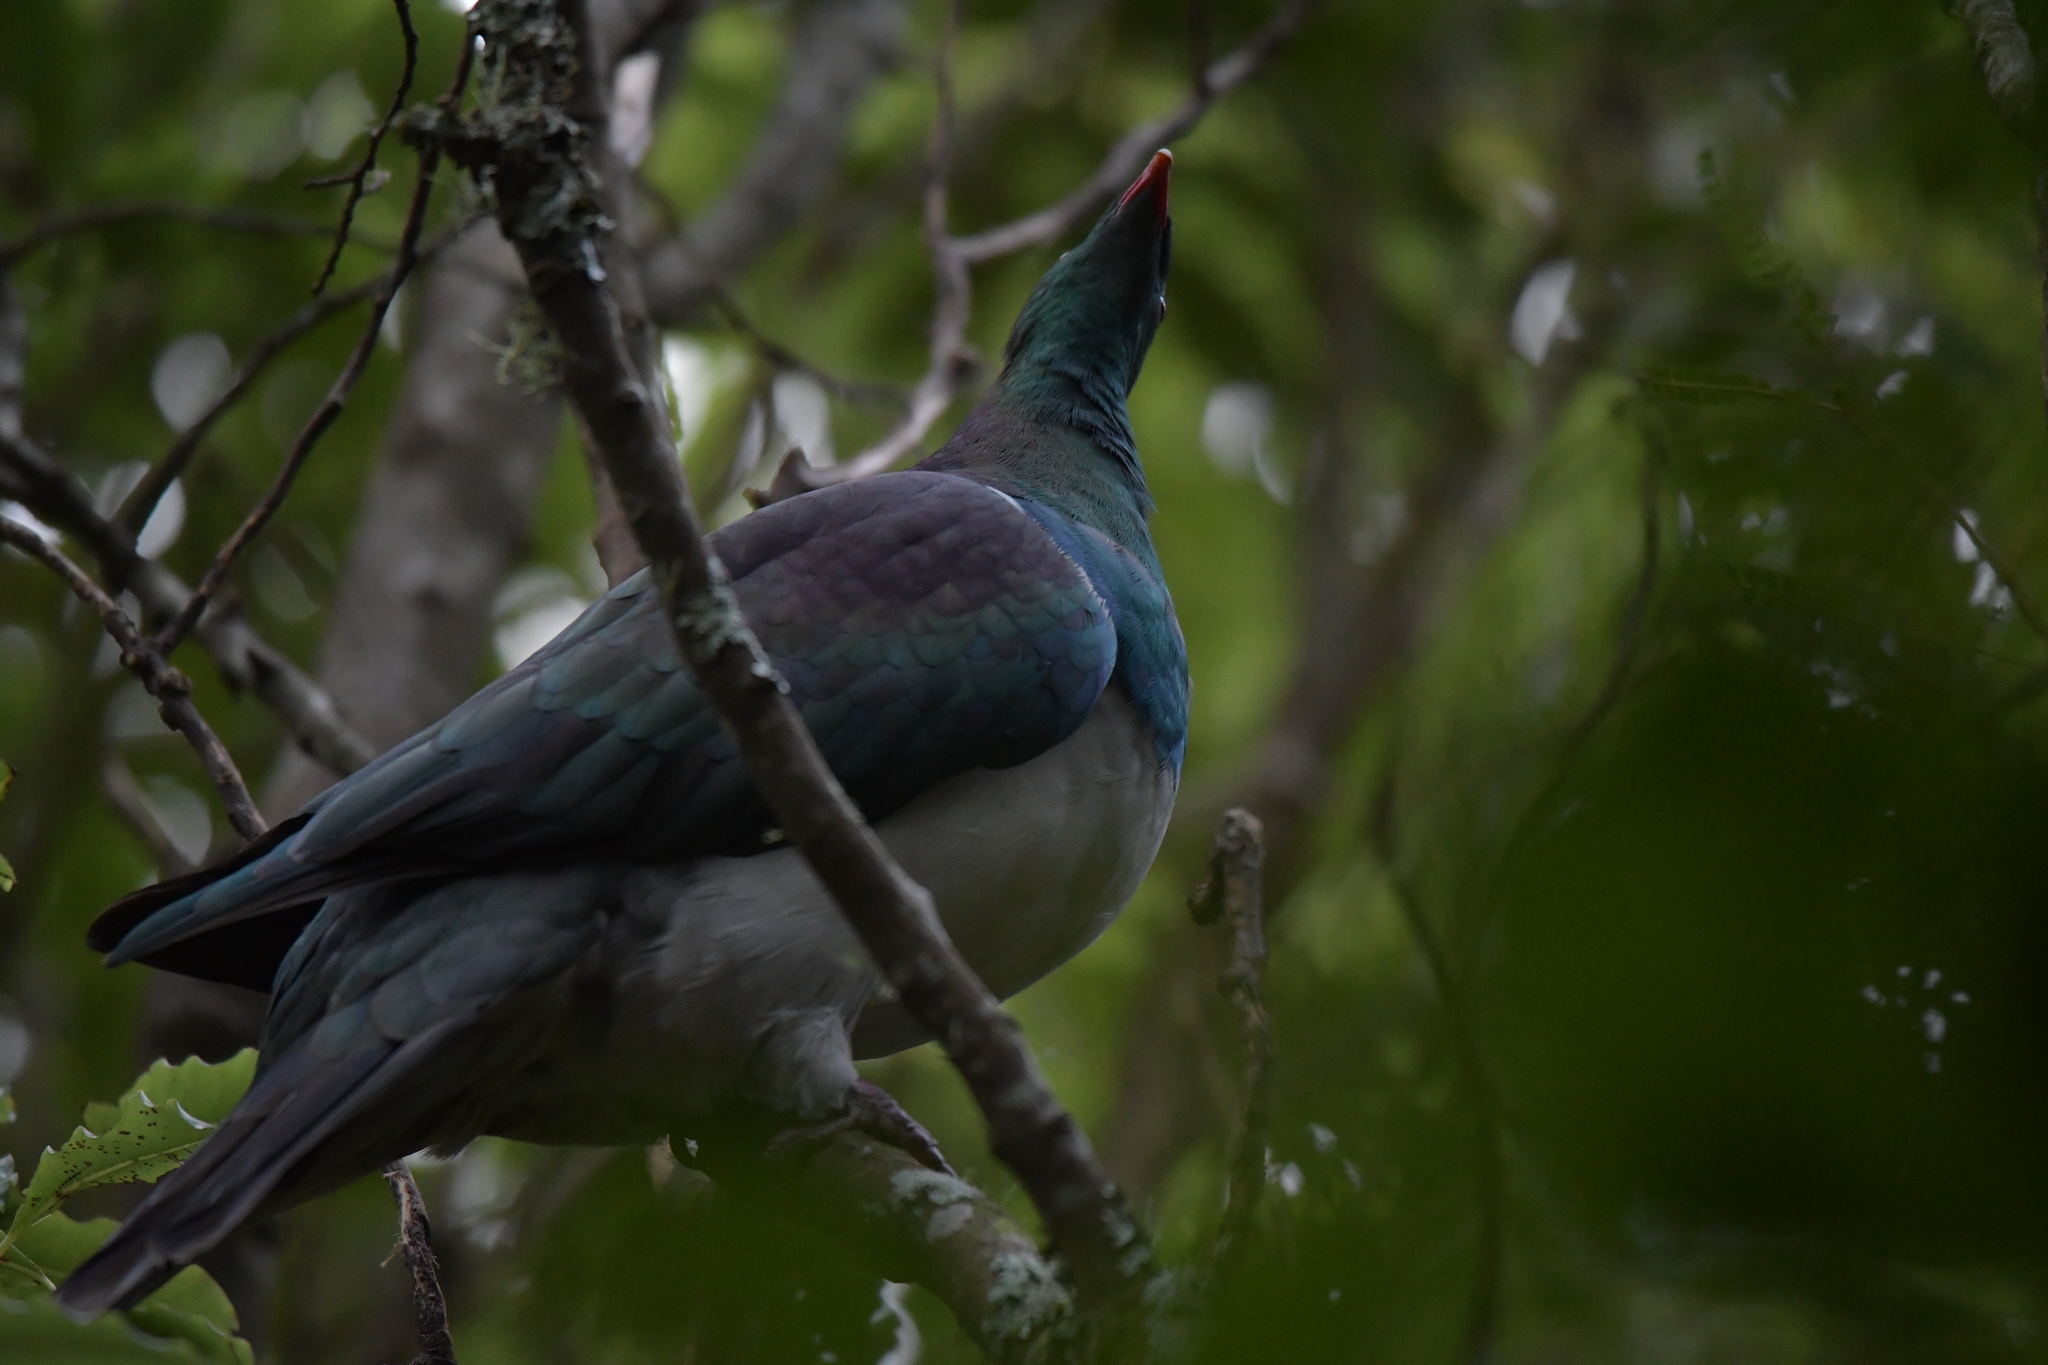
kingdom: Animalia
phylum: Chordata
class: Aves
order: Columbiformes
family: Columbidae
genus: Hemiphaga
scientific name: Hemiphaga novaeseelandiae
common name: New zealand pigeon
